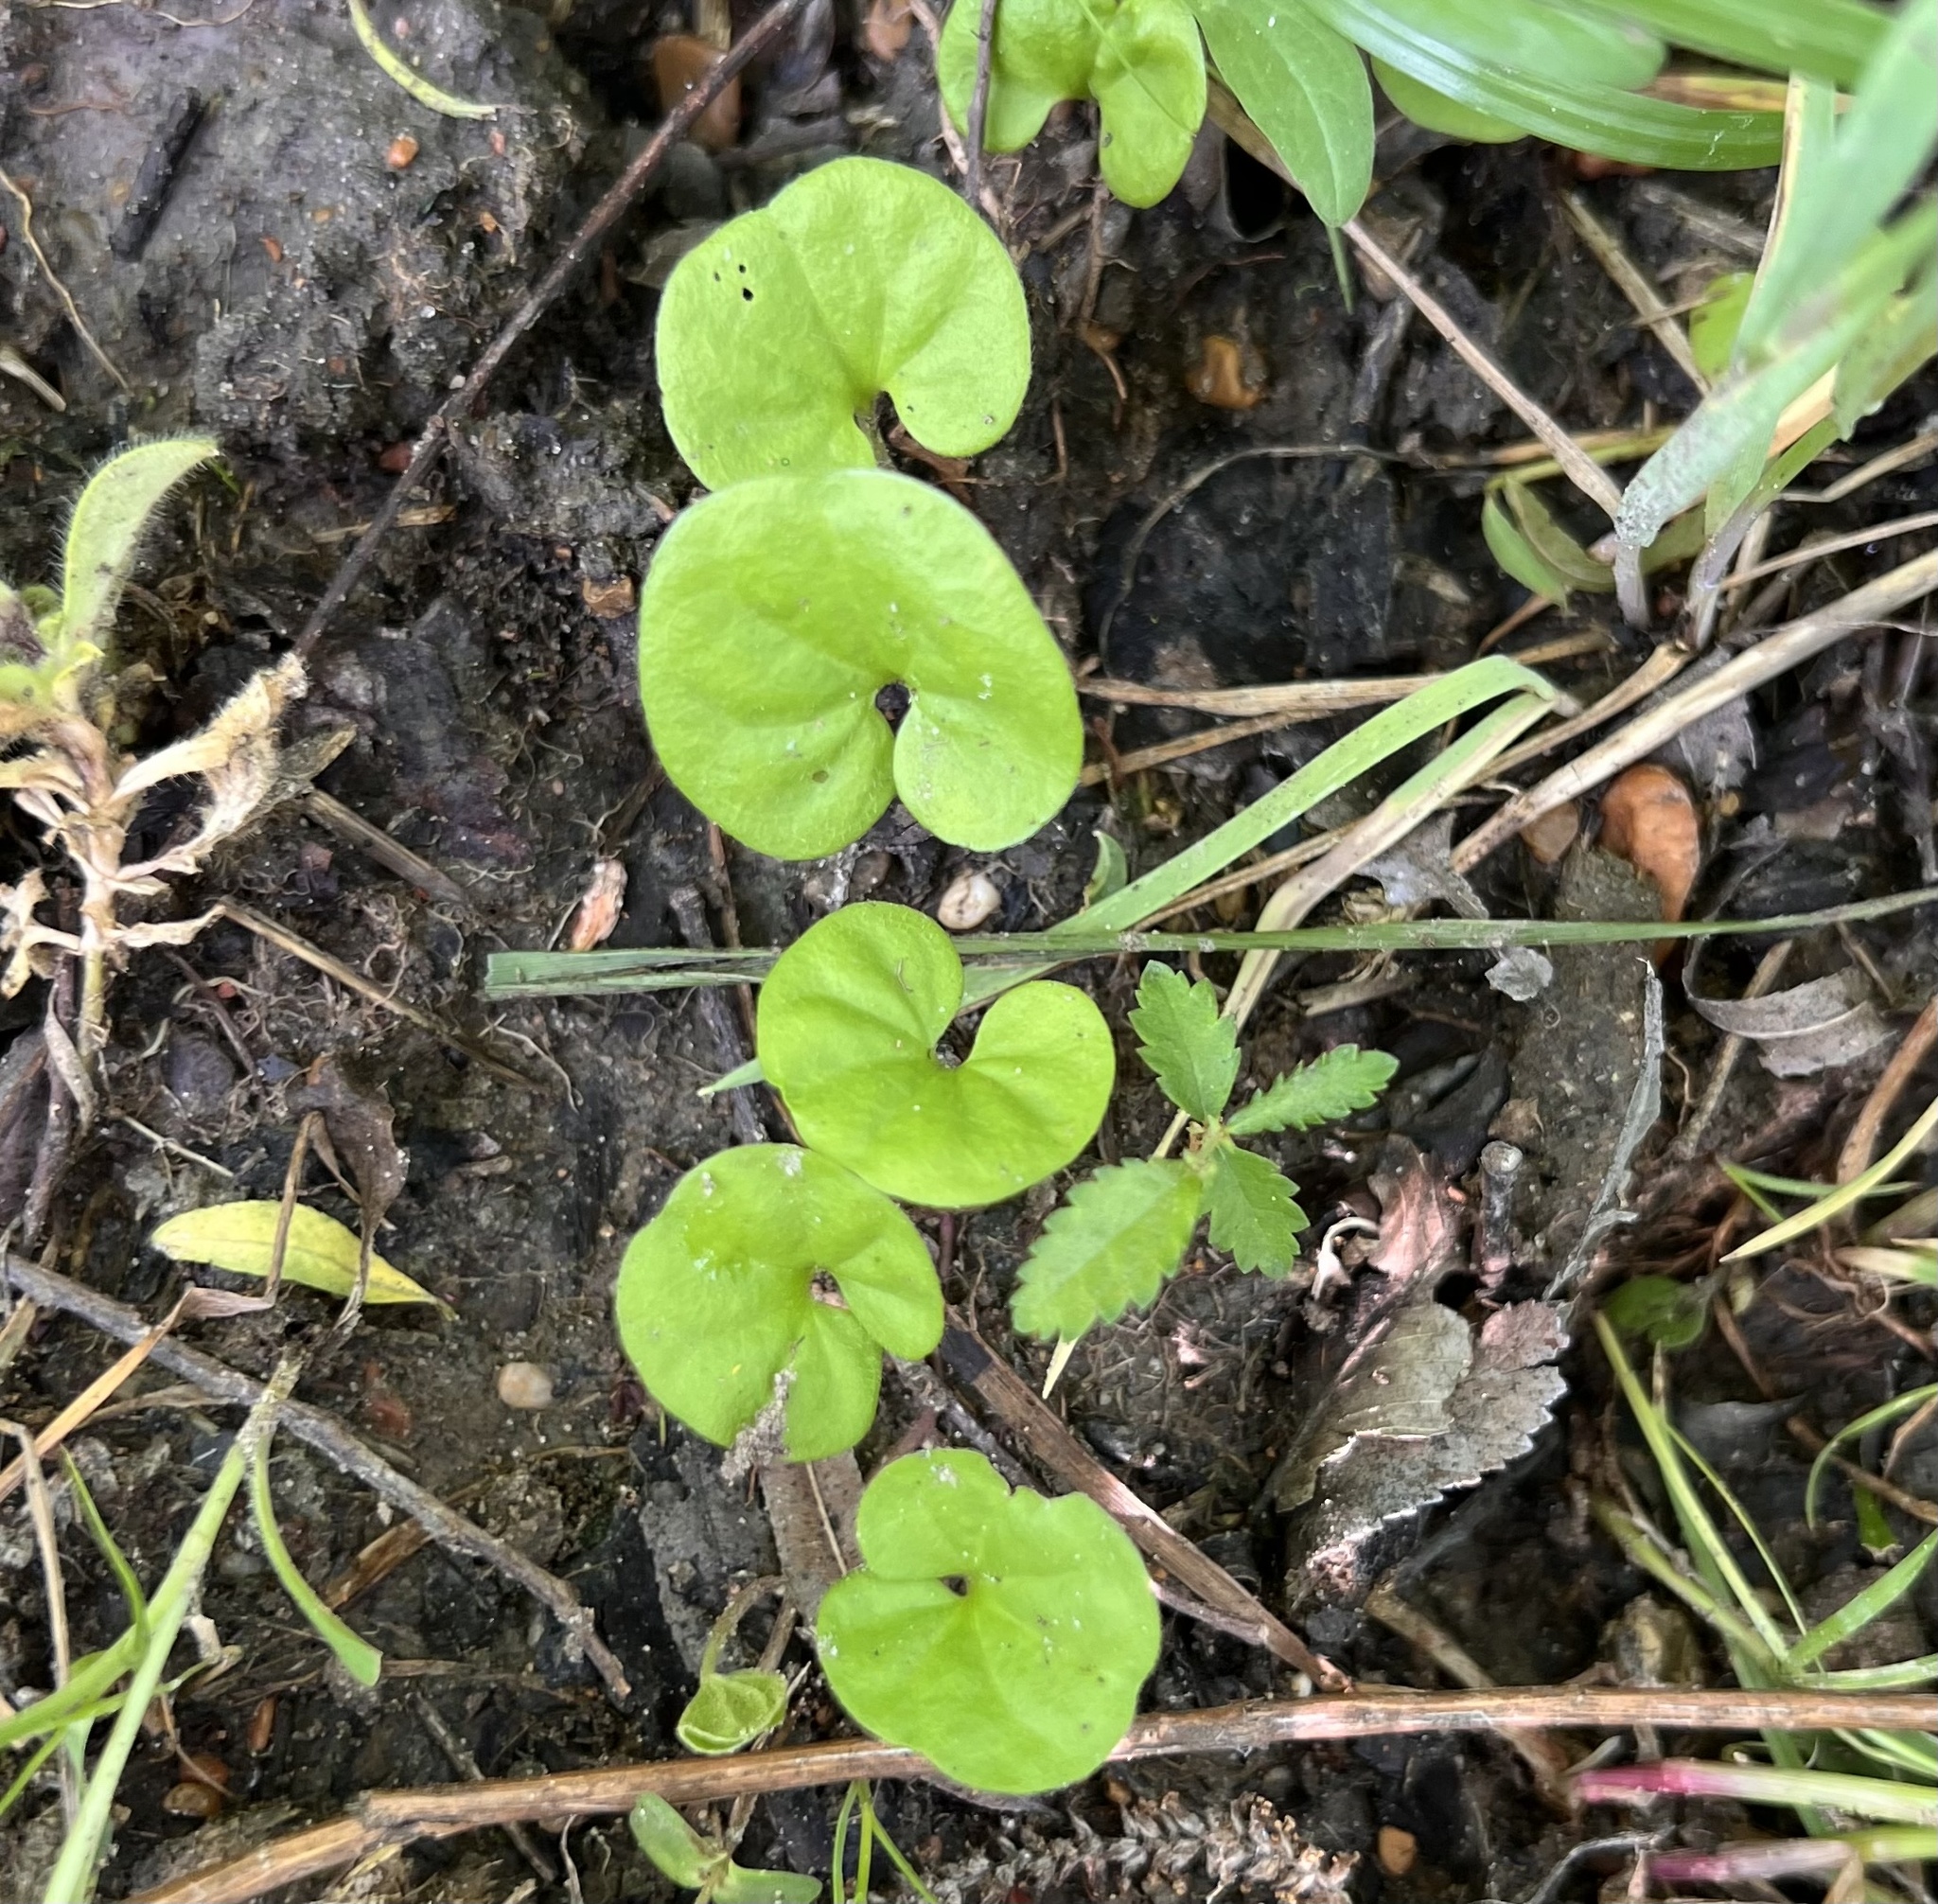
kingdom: Plantae
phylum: Tracheophyta
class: Magnoliopsida
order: Solanales
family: Convolvulaceae
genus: Dichondra
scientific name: Dichondra carolinensis
